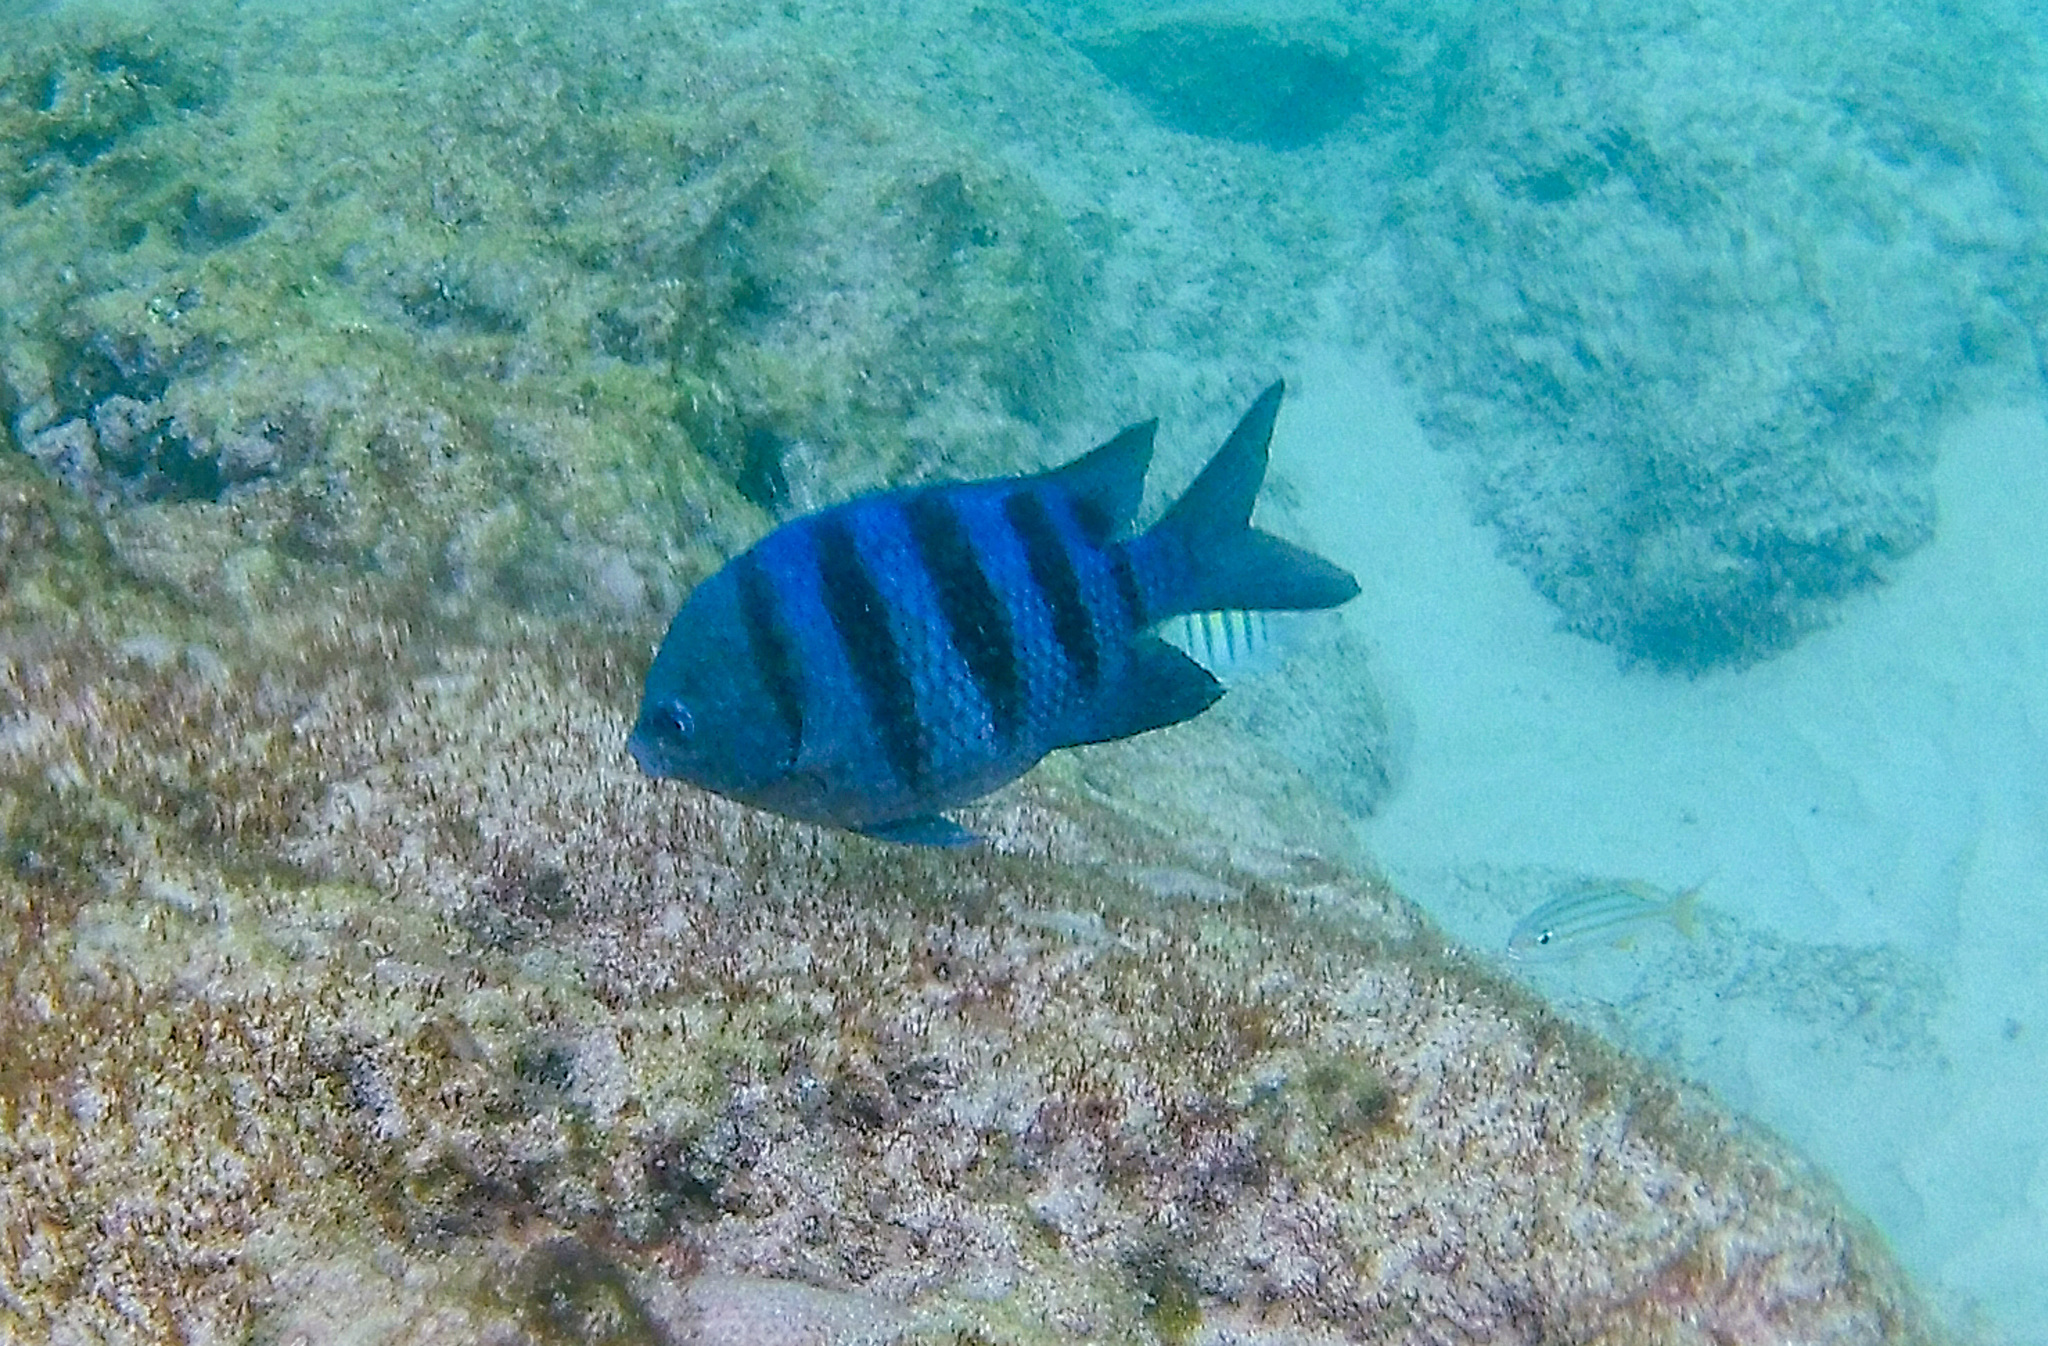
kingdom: Animalia
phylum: Chordata
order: Perciformes
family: Pomacentridae
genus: Abudefduf
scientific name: Abudefduf saxatilis
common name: Sergeant major
